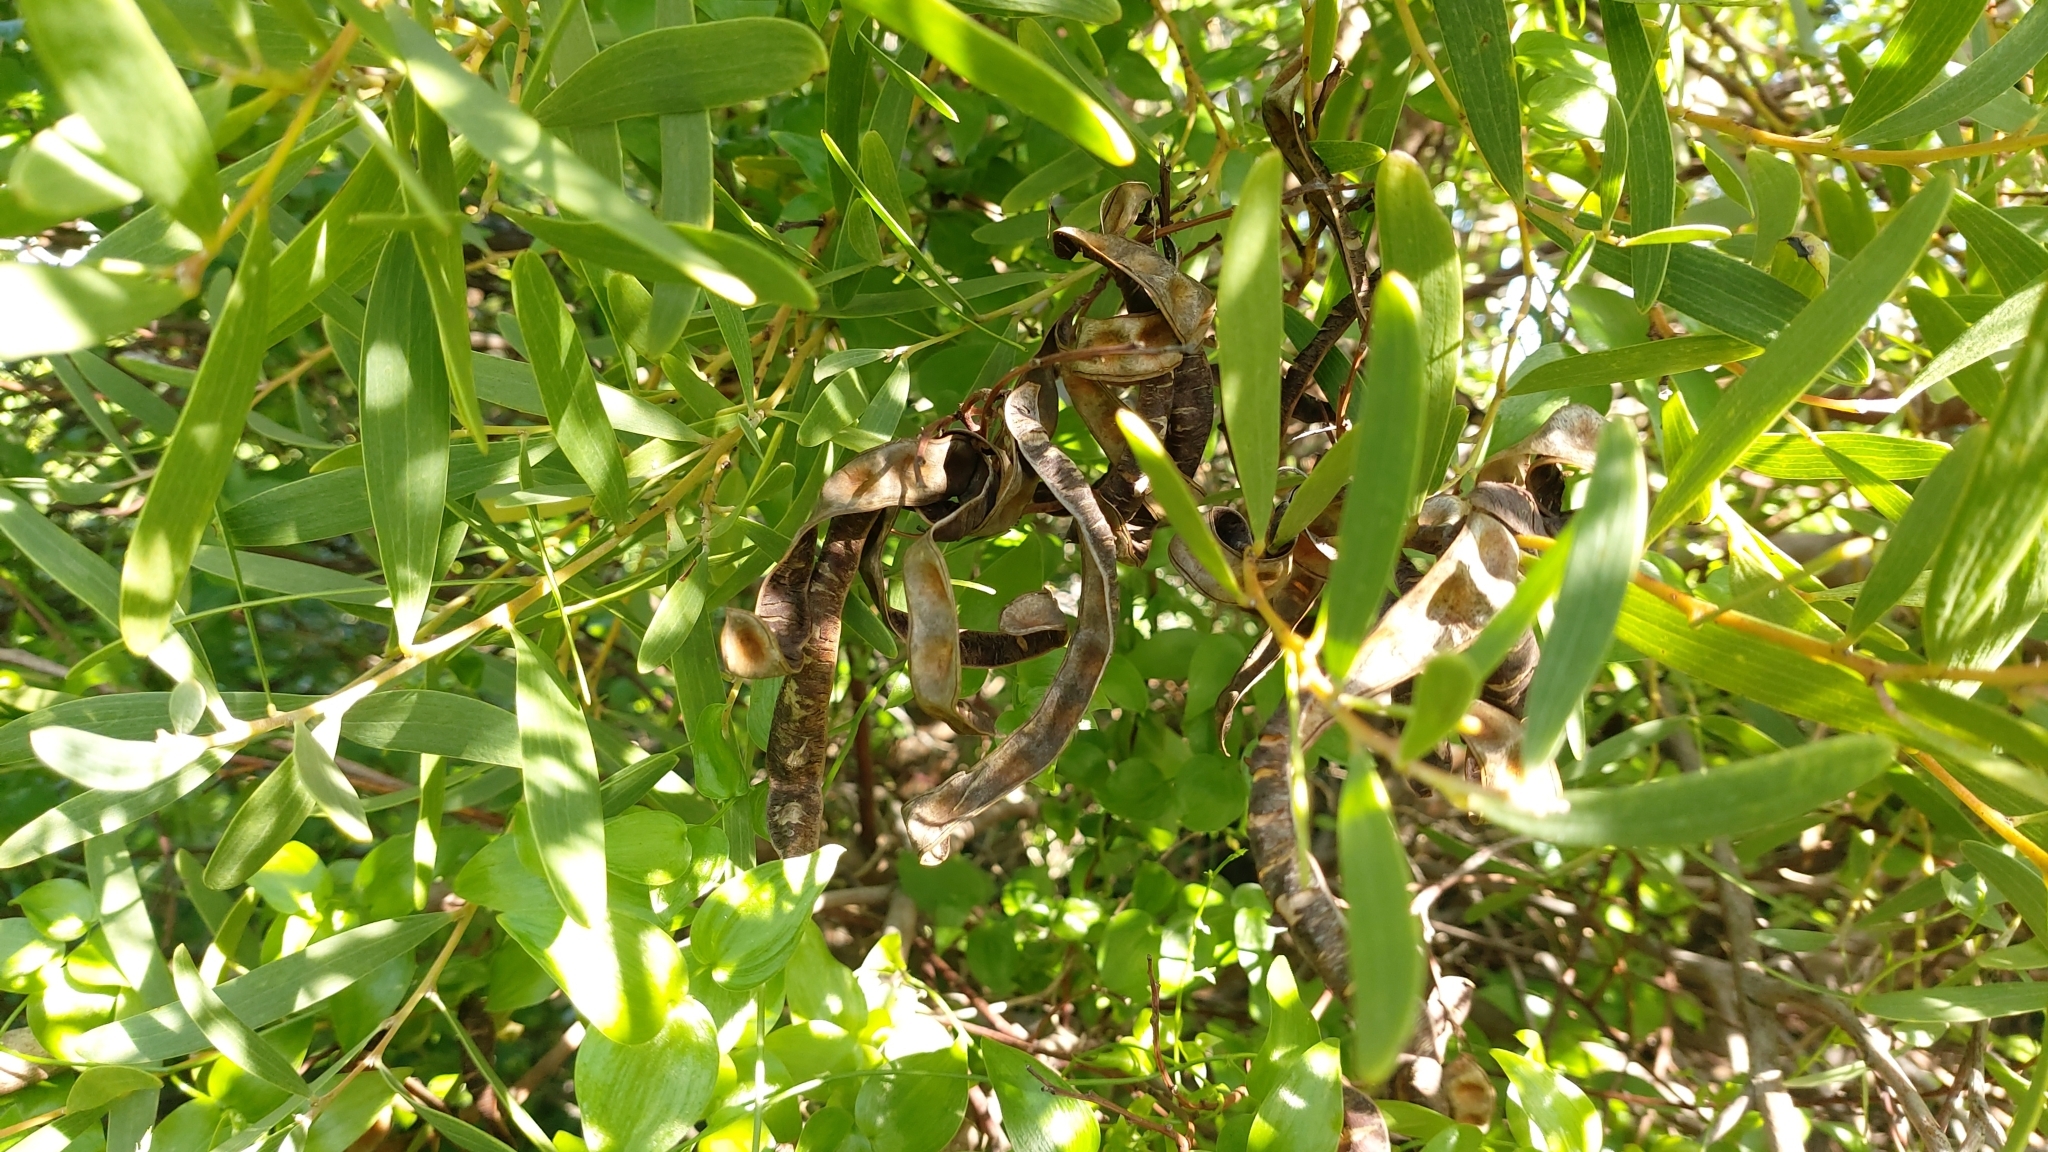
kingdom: Plantae
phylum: Tracheophyta
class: Magnoliopsida
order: Fabales
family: Fabaceae
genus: Acacia
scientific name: Acacia cyclops
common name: Coastal wattle
